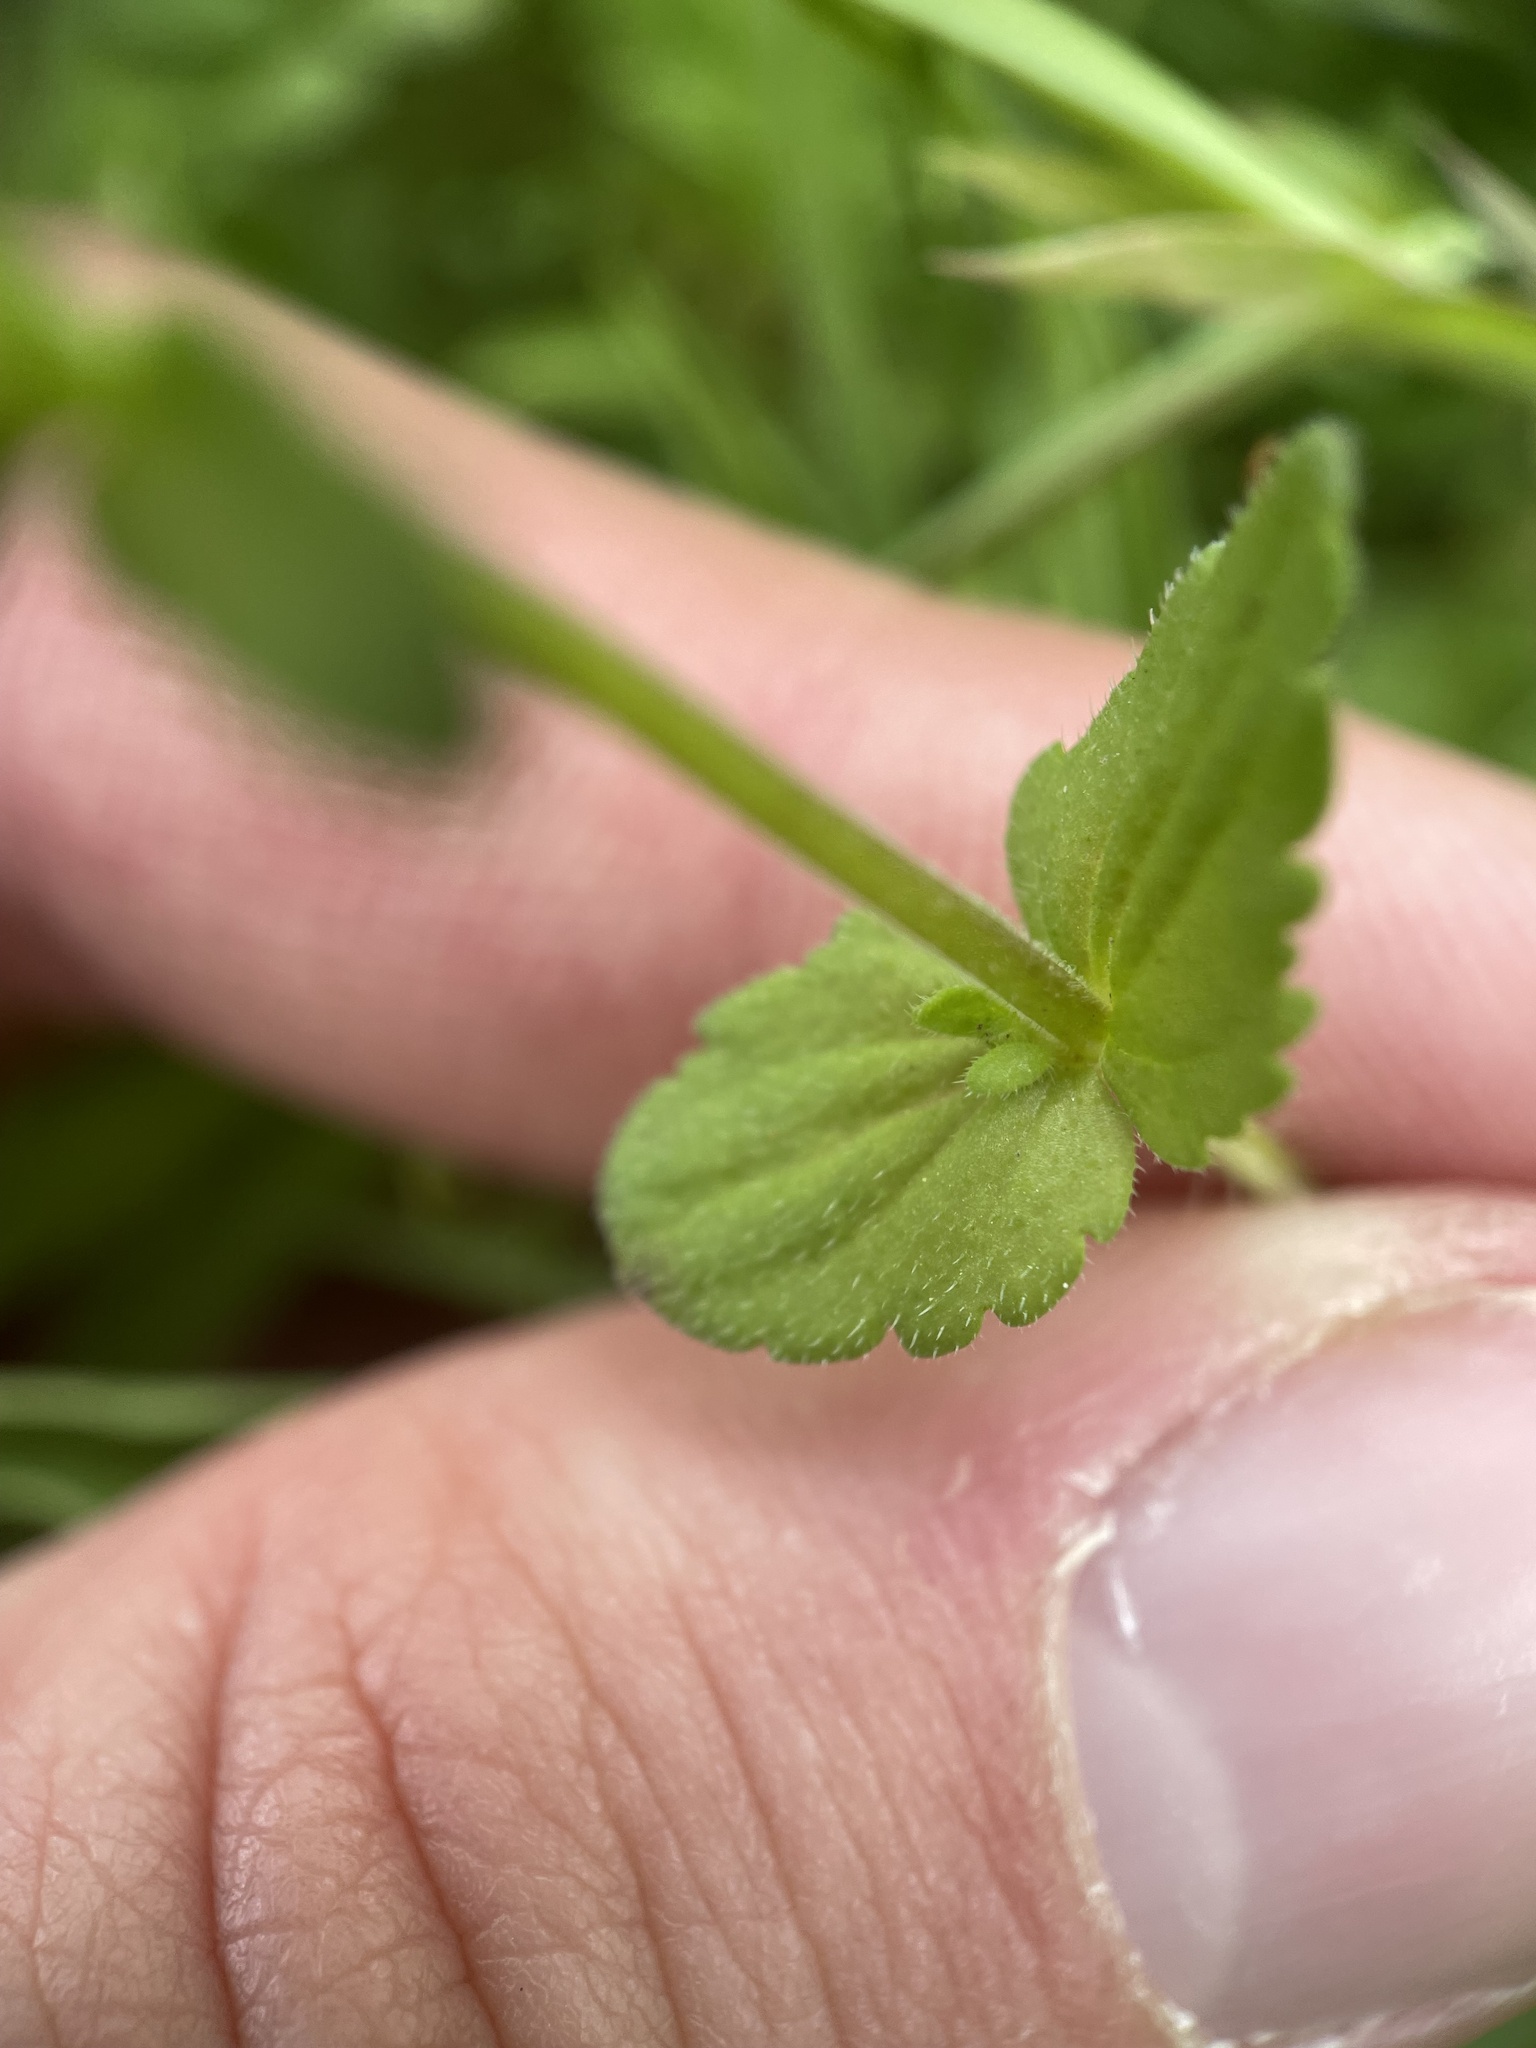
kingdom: Plantae
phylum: Tracheophyta
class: Magnoliopsida
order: Lamiales
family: Plantaginaceae
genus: Veronica
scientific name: Veronica arvensis
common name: Corn speedwell
